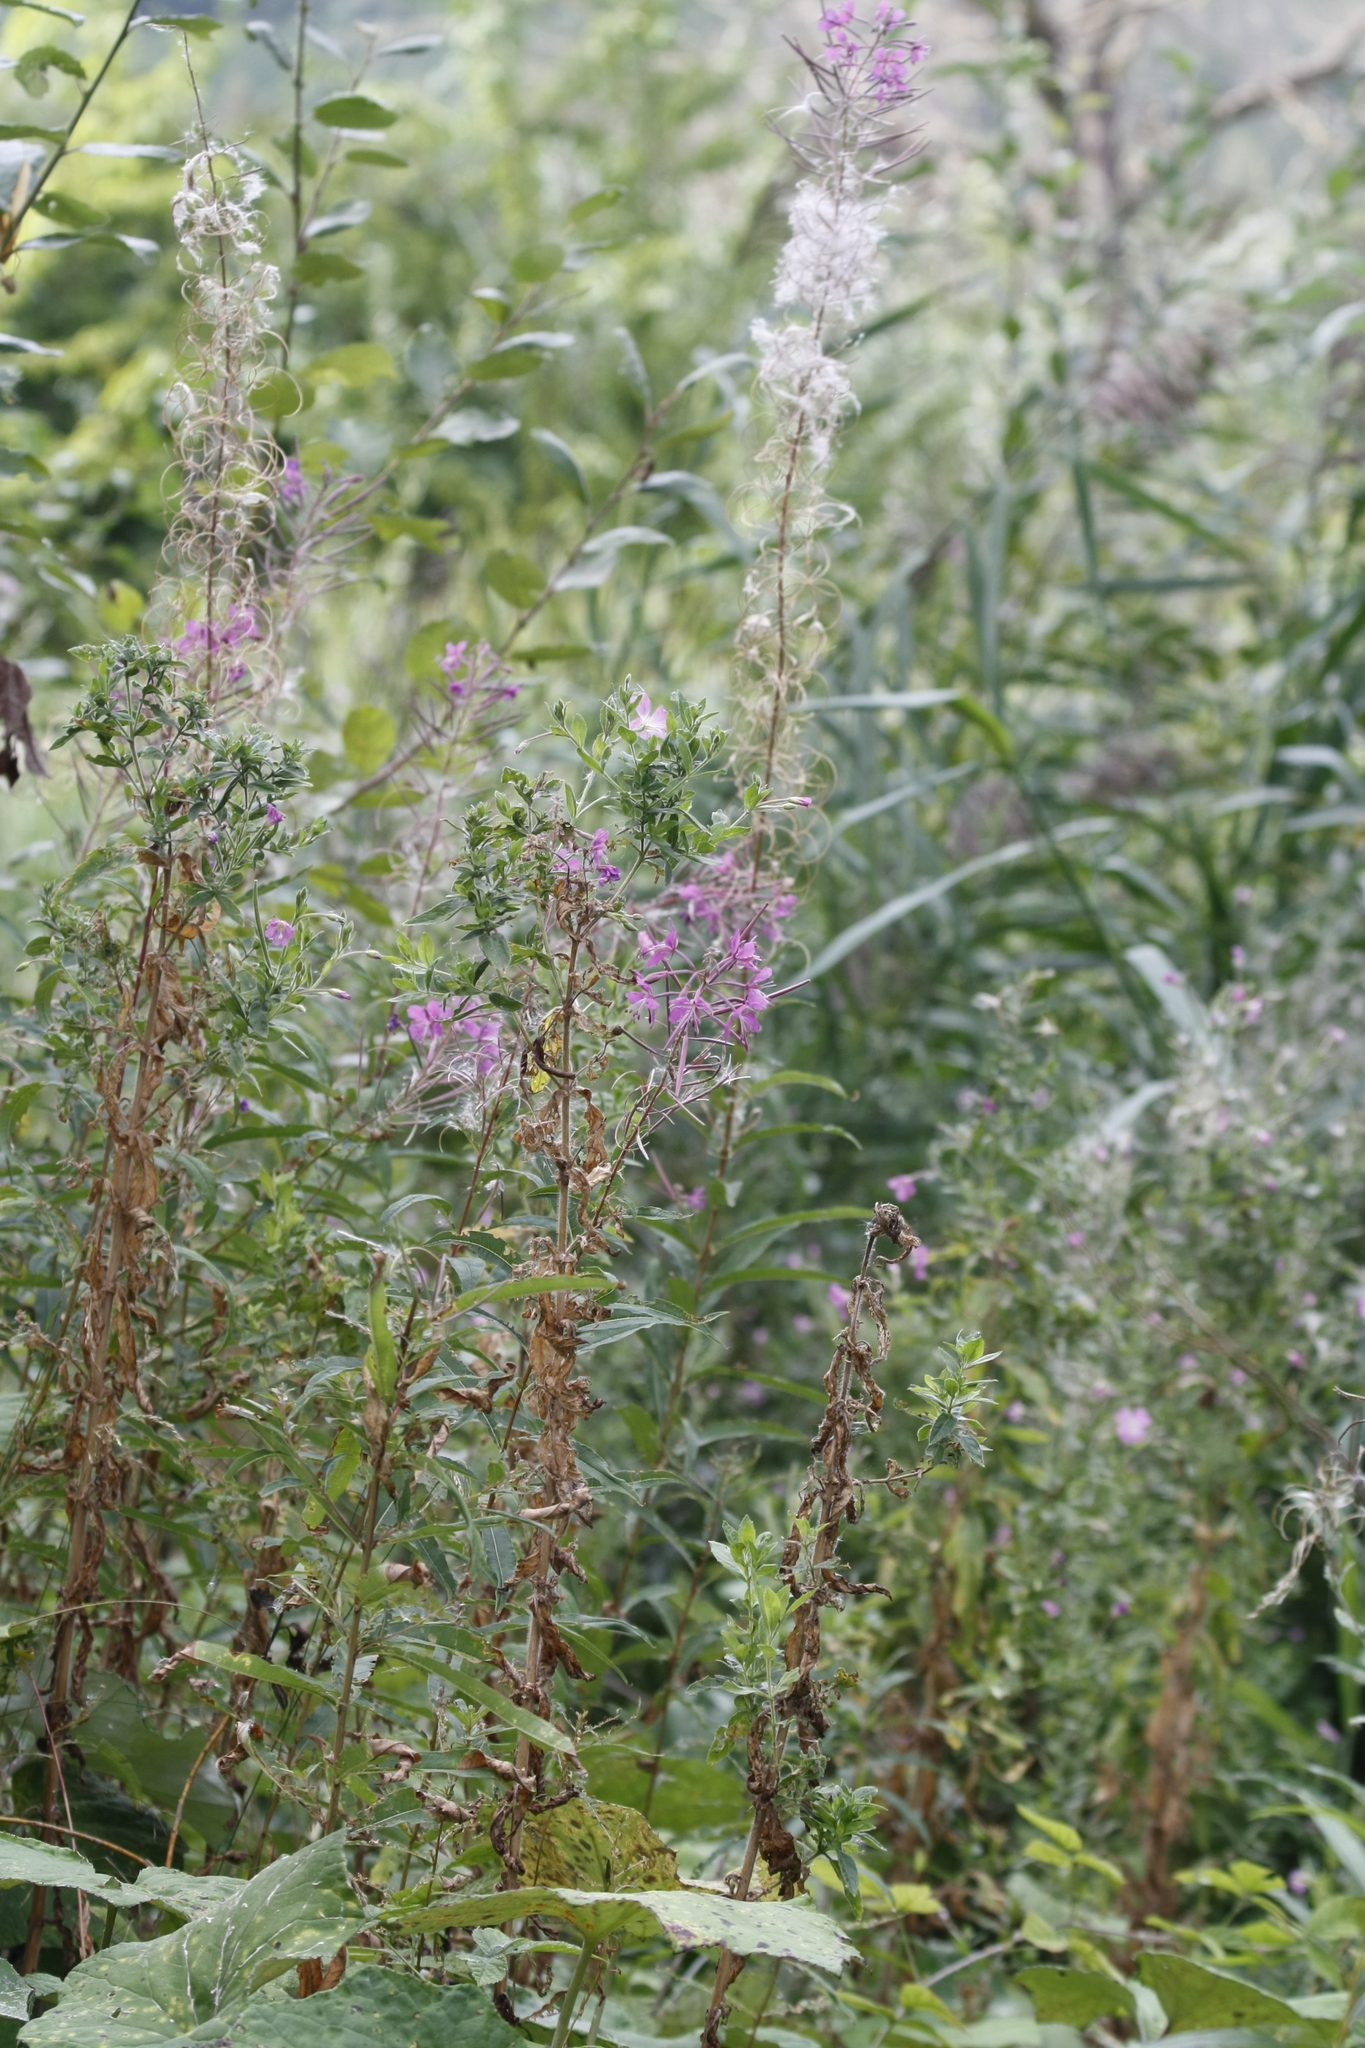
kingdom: Plantae
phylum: Tracheophyta
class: Magnoliopsida
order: Myrtales
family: Onagraceae
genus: Chamaenerion
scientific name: Chamaenerion angustifolium
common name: Fireweed
